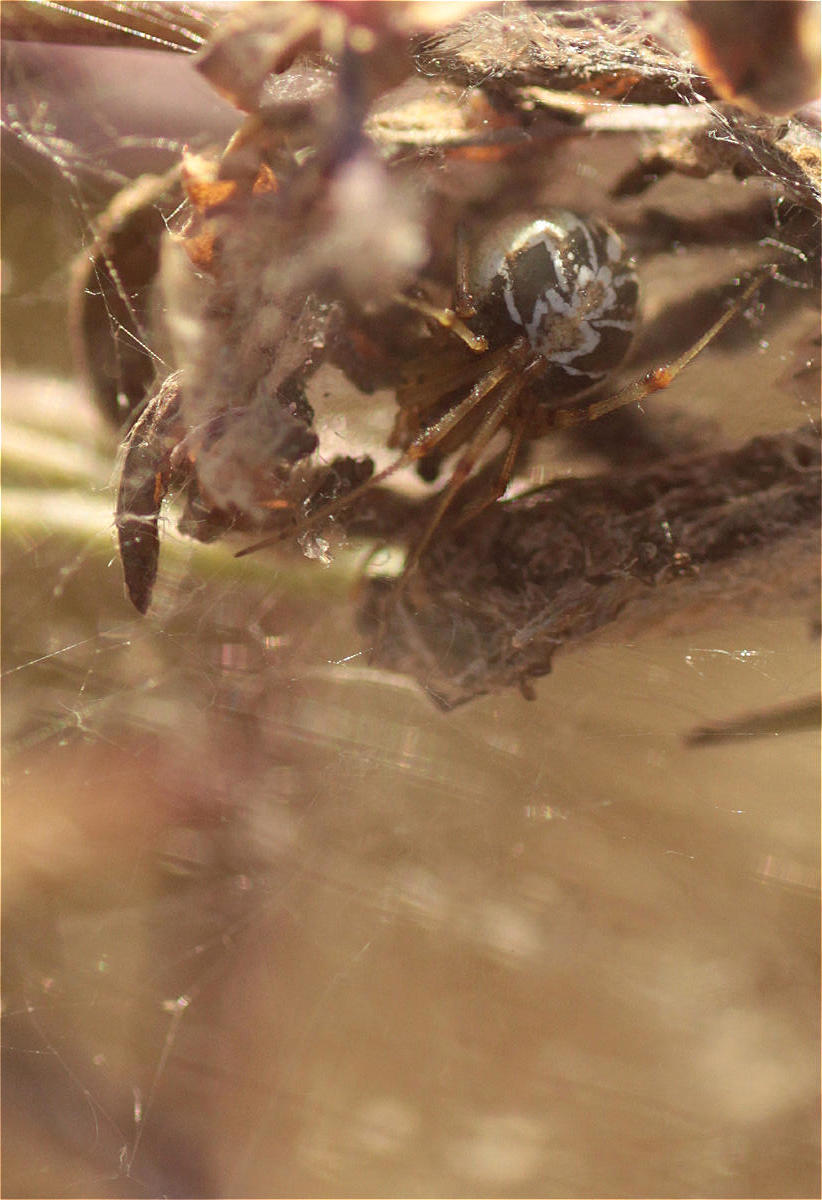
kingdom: Animalia
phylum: Arthropoda
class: Arachnida
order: Araneae
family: Theridiidae
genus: Phylloneta
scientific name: Phylloneta
